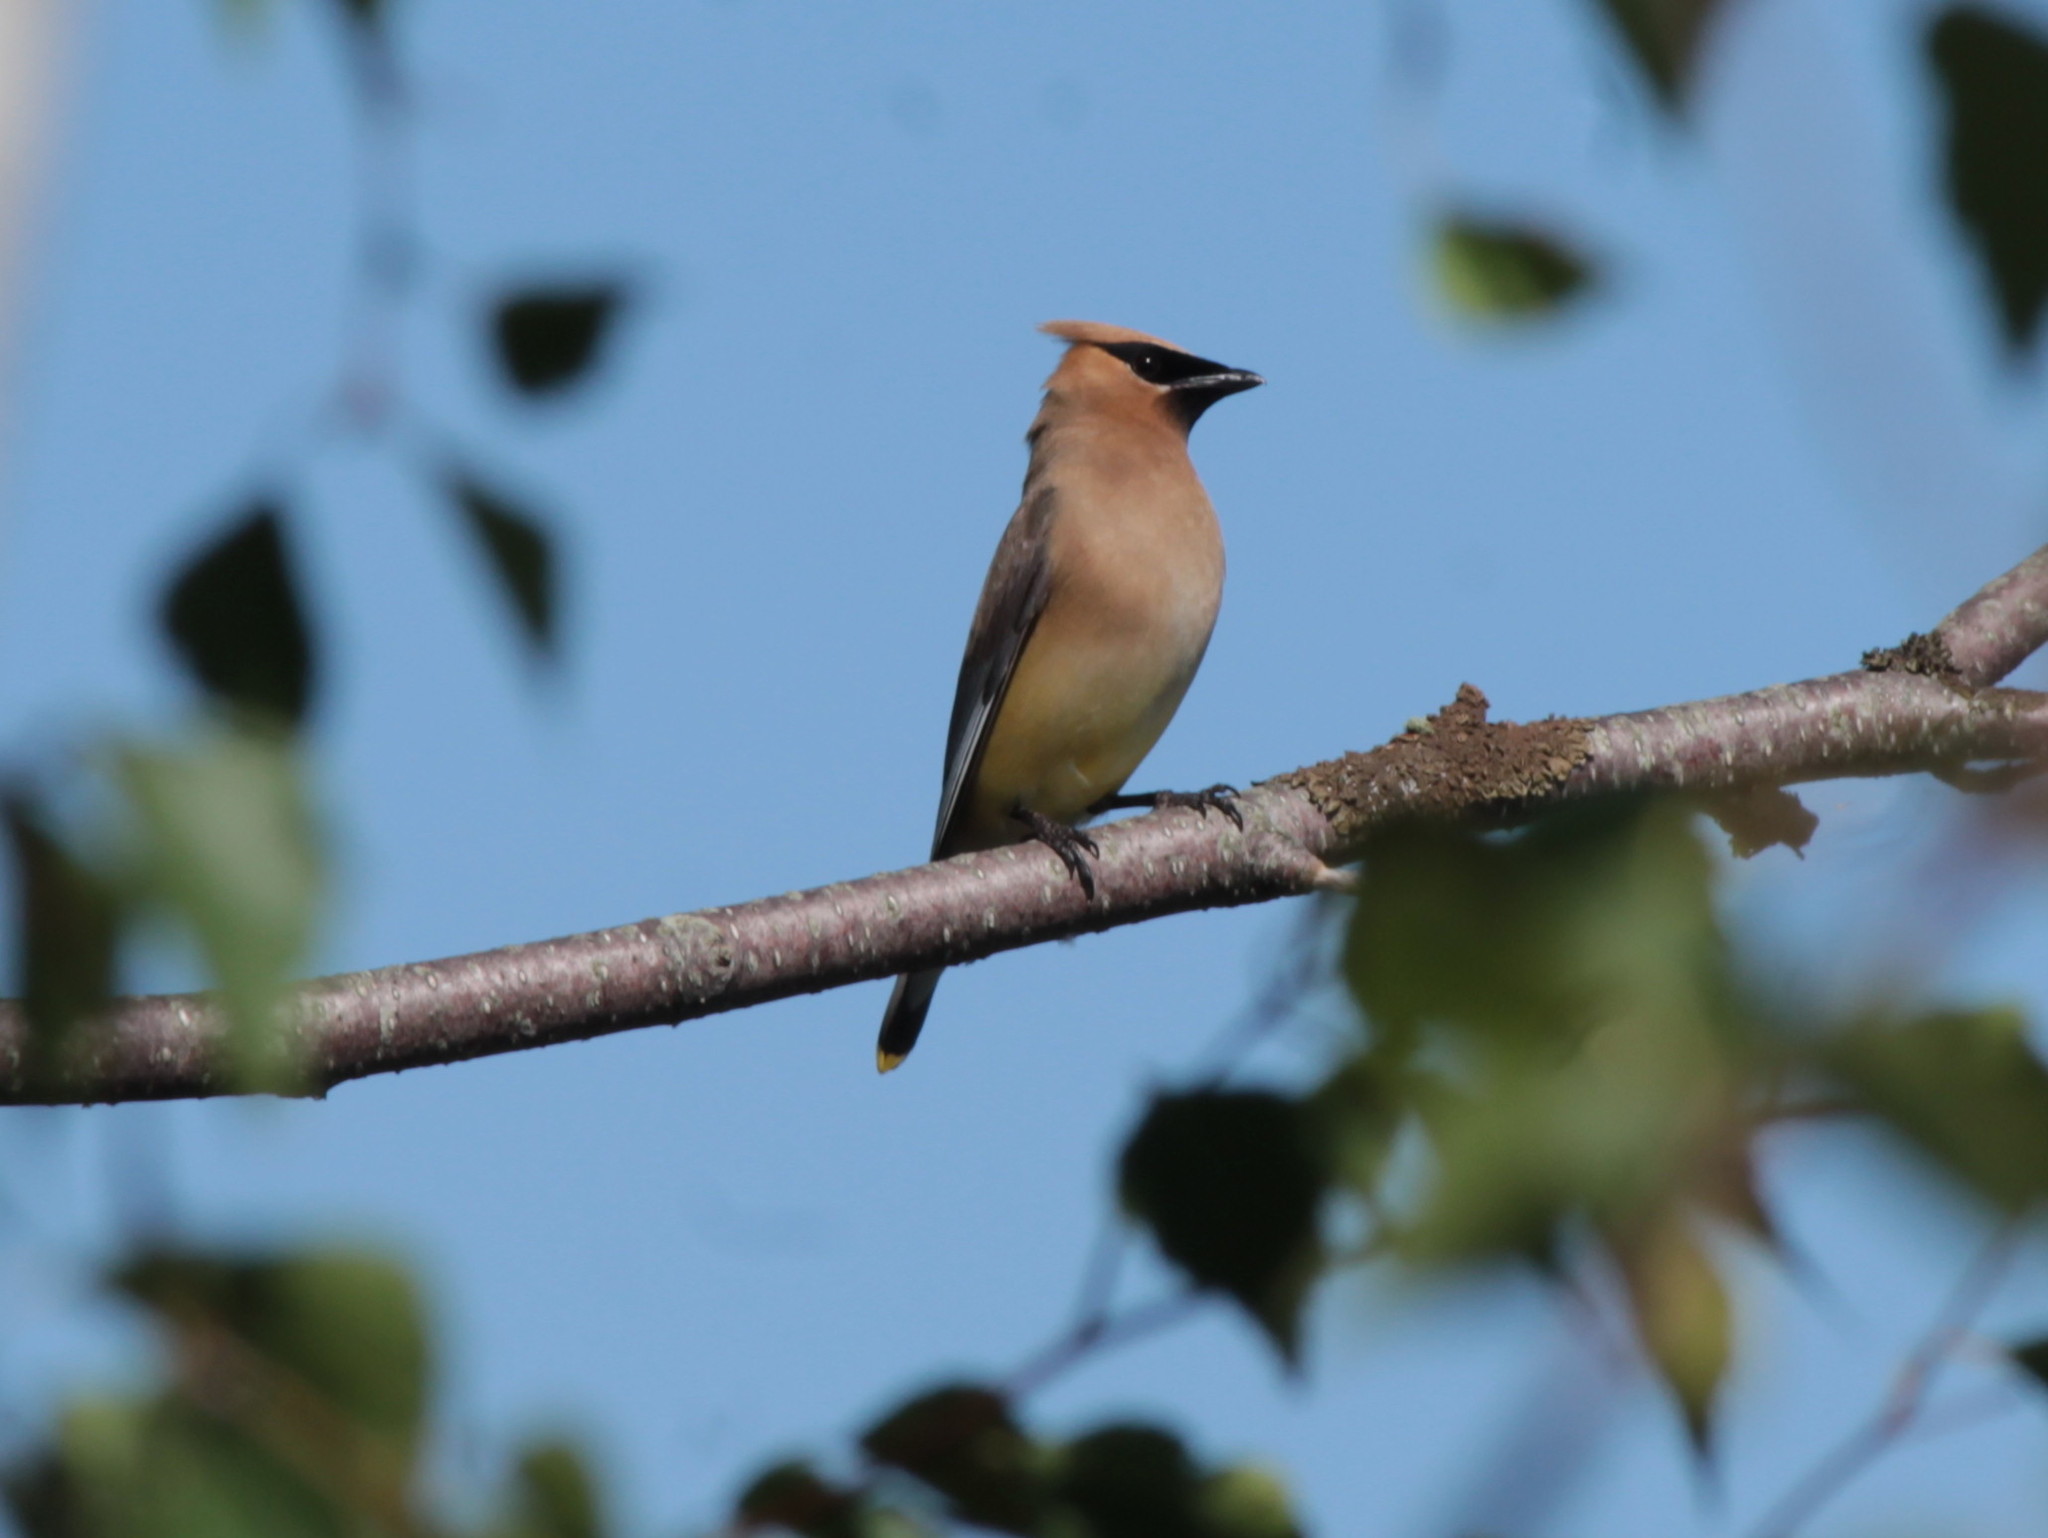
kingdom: Animalia
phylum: Chordata
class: Aves
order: Passeriformes
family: Bombycillidae
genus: Bombycilla
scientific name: Bombycilla cedrorum
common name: Cedar waxwing
